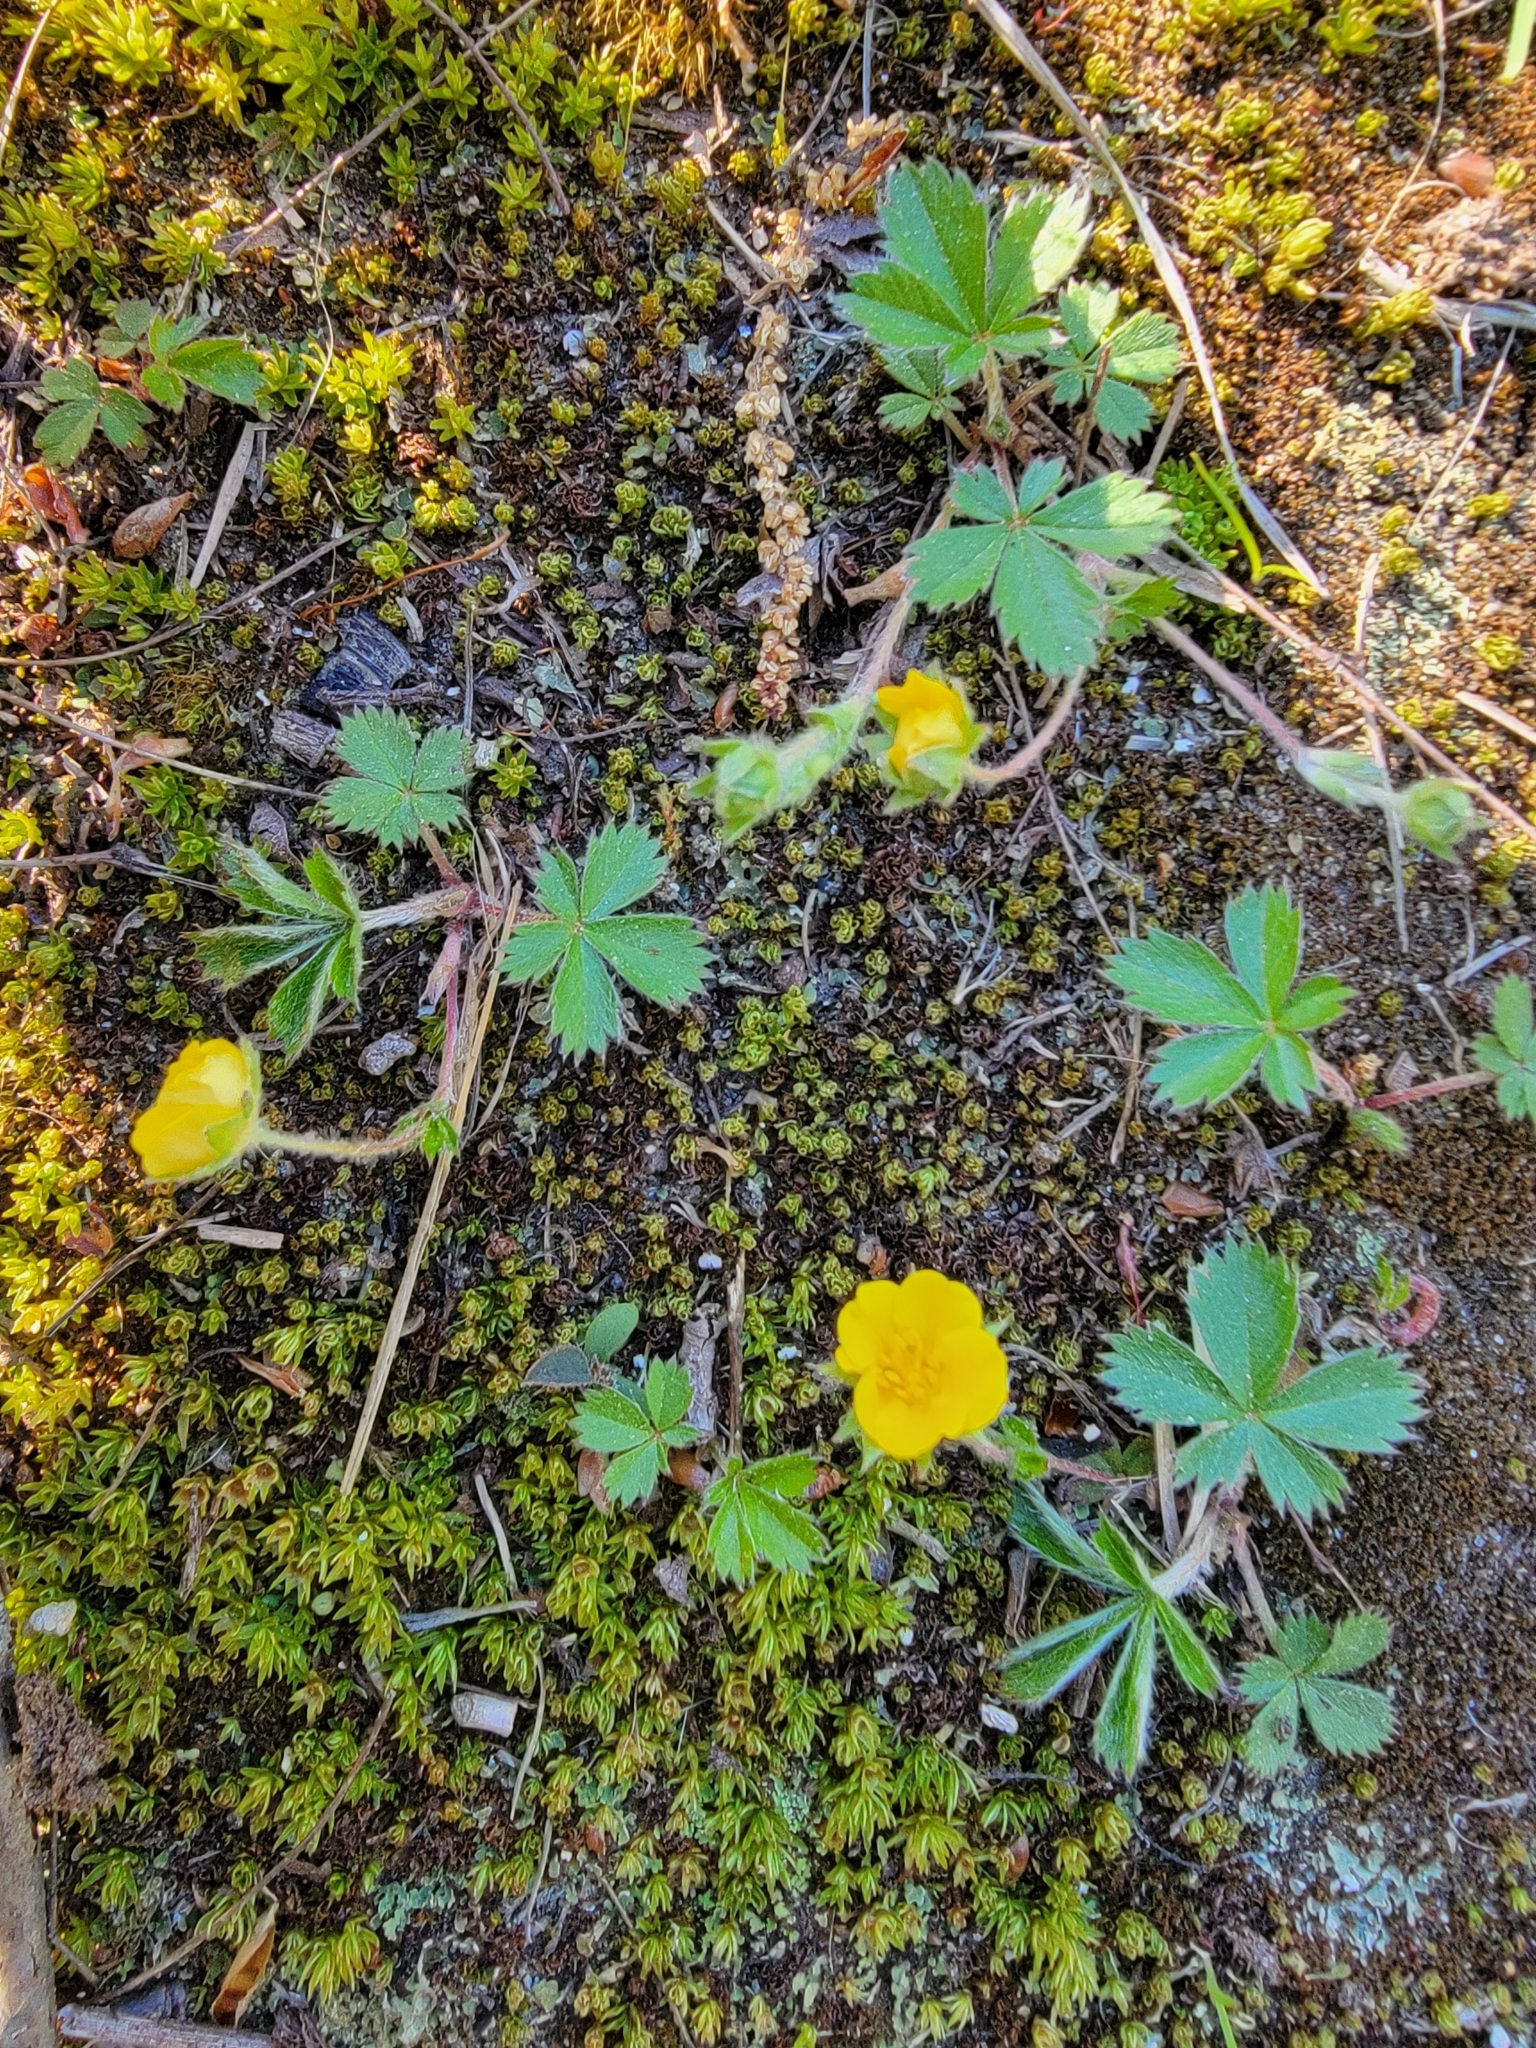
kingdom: Plantae
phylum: Tracheophyta
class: Magnoliopsida
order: Rosales
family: Rosaceae
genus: Potentilla
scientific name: Potentilla canadensis
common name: Canada cinquefoil
